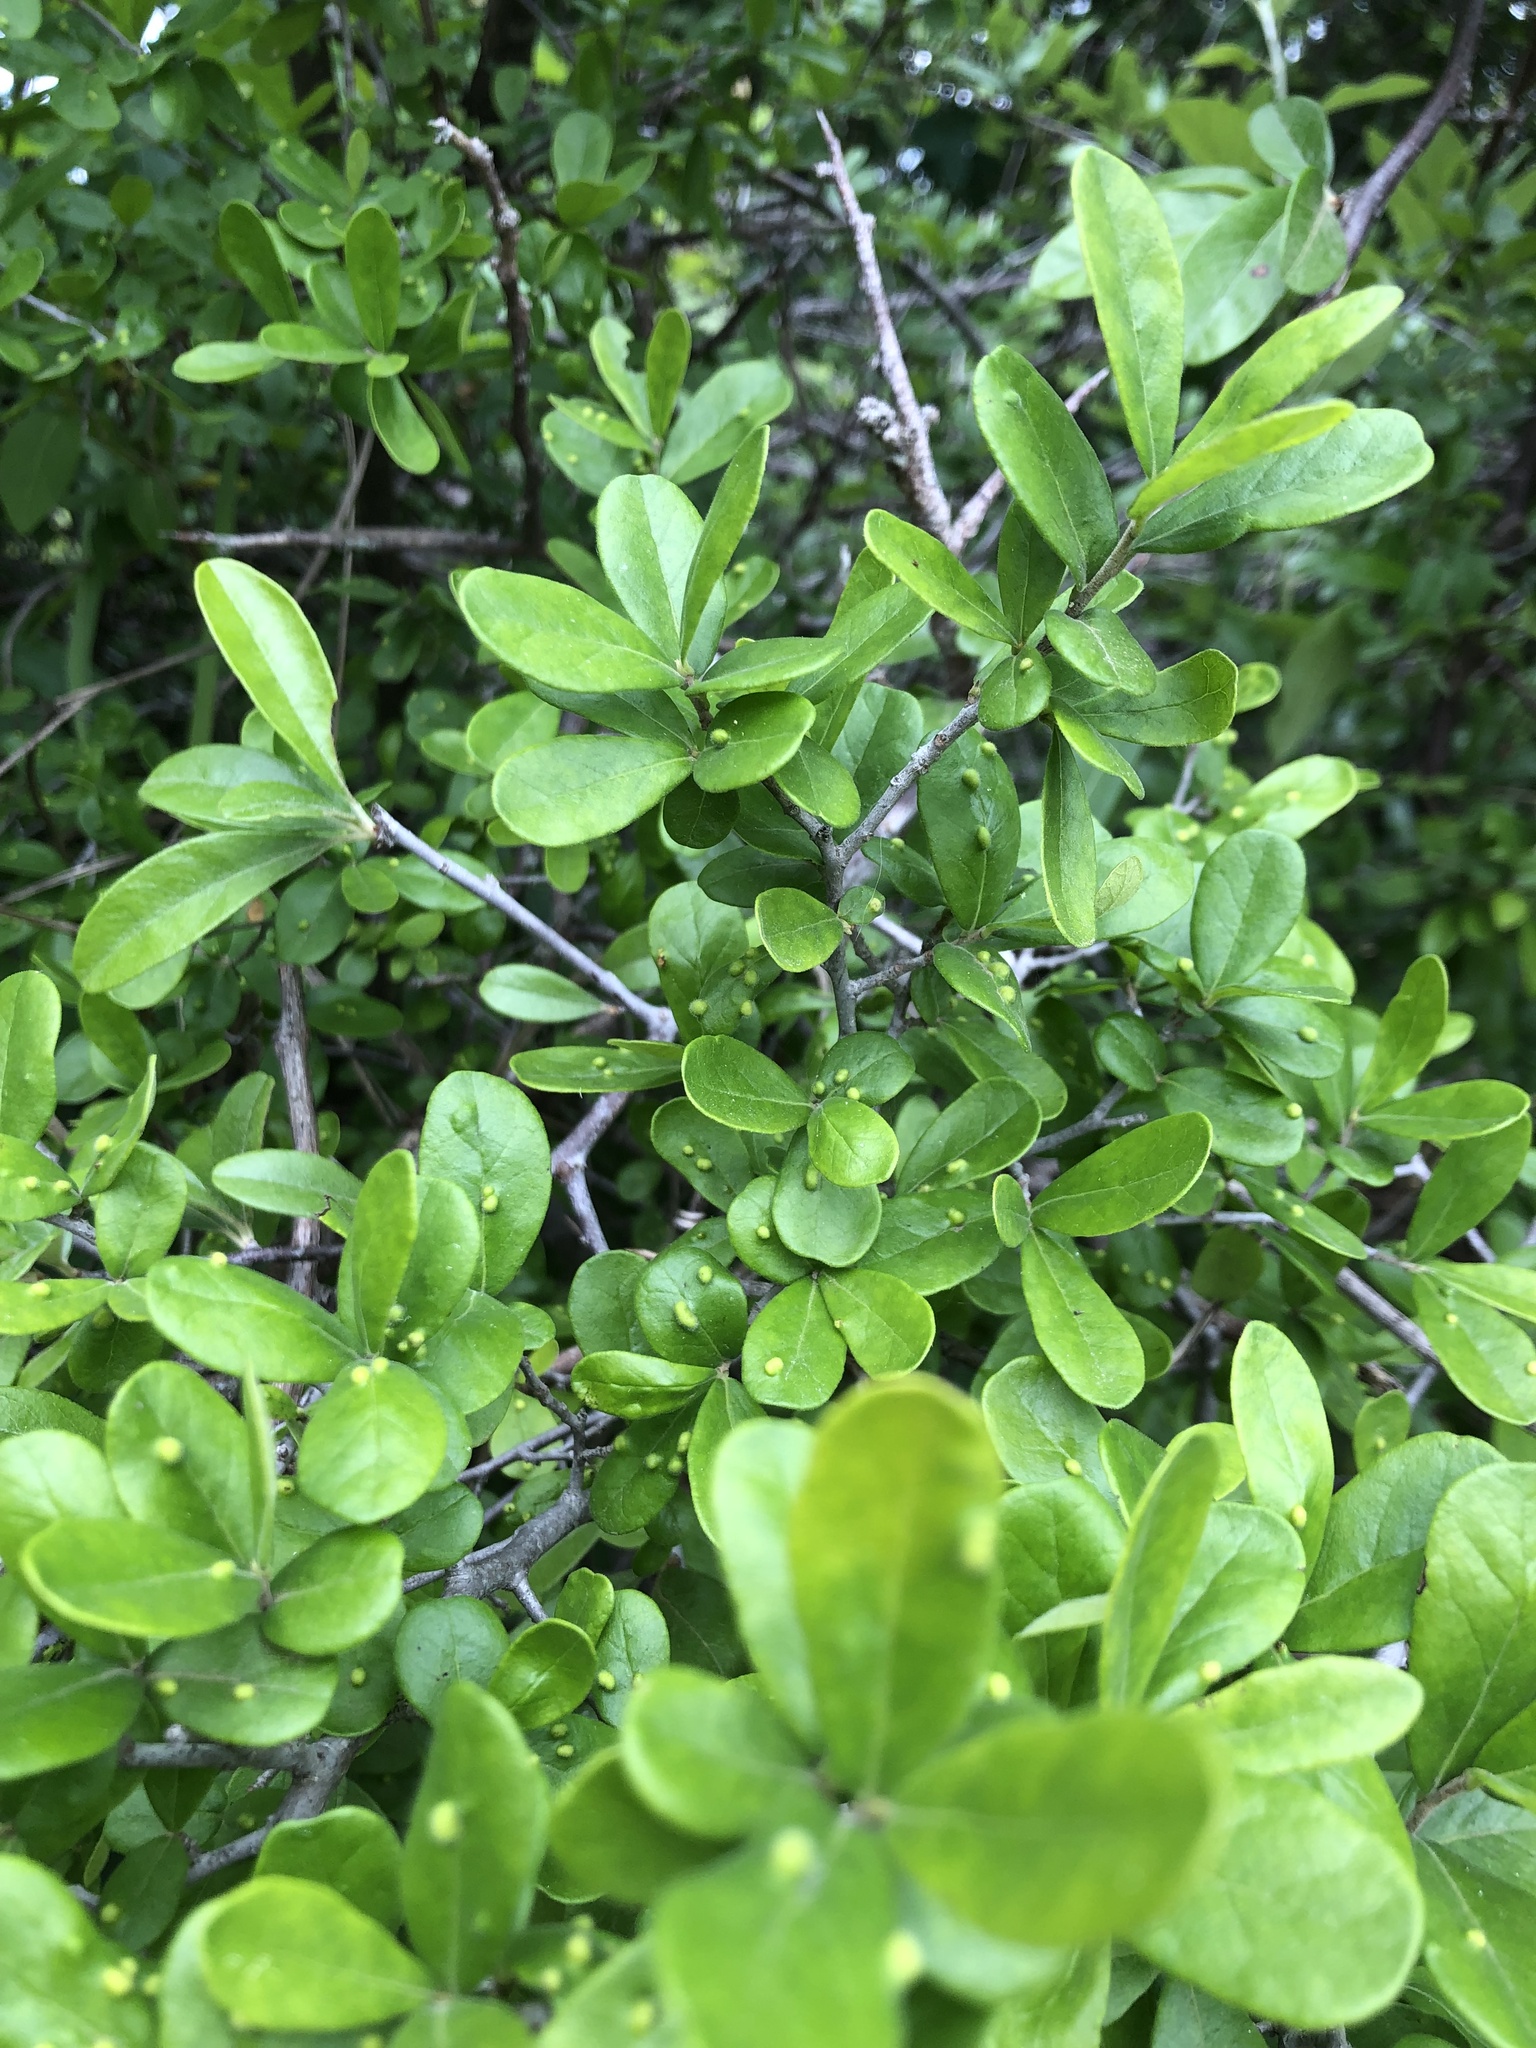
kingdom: Plantae
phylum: Tracheophyta
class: Magnoliopsida
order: Ericales
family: Ebenaceae
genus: Diospyros
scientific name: Diospyros texana
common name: Texas persimmon
